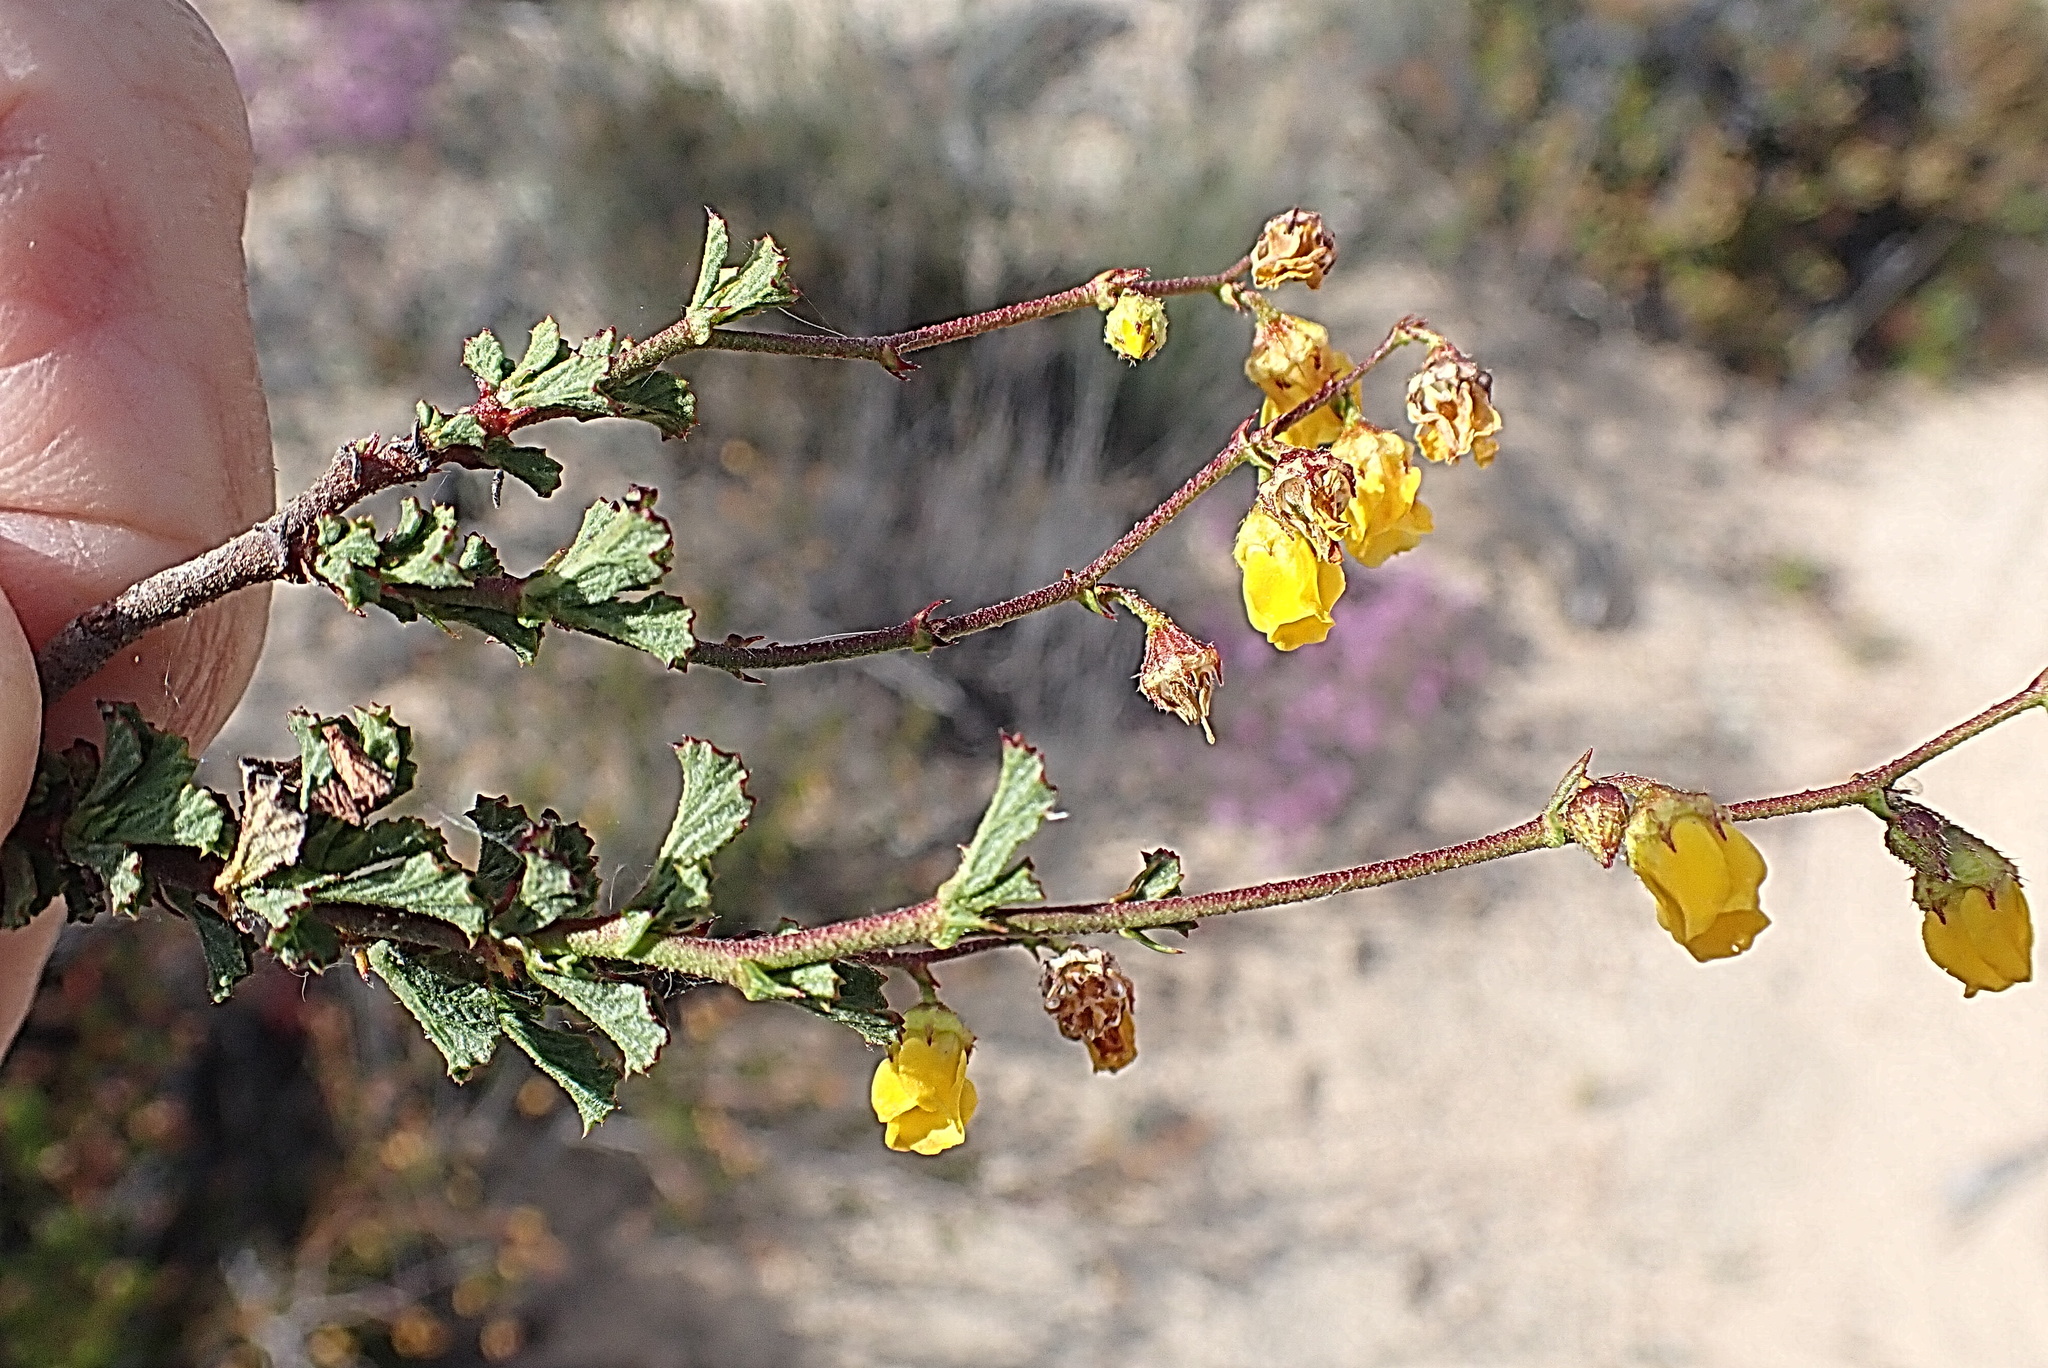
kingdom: Plantae
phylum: Tracheophyta
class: Magnoliopsida
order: Malvales
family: Malvaceae
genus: Hermannia
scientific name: Hermannia alnifolia
